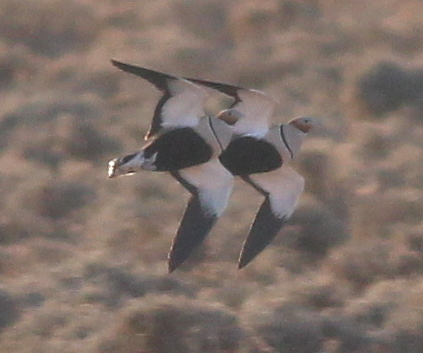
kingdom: Animalia
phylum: Chordata
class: Aves
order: Pteroclidiformes
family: Pteroclididae
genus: Pterocles
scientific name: Pterocles orientalis
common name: Black-bellied sandgrouse
